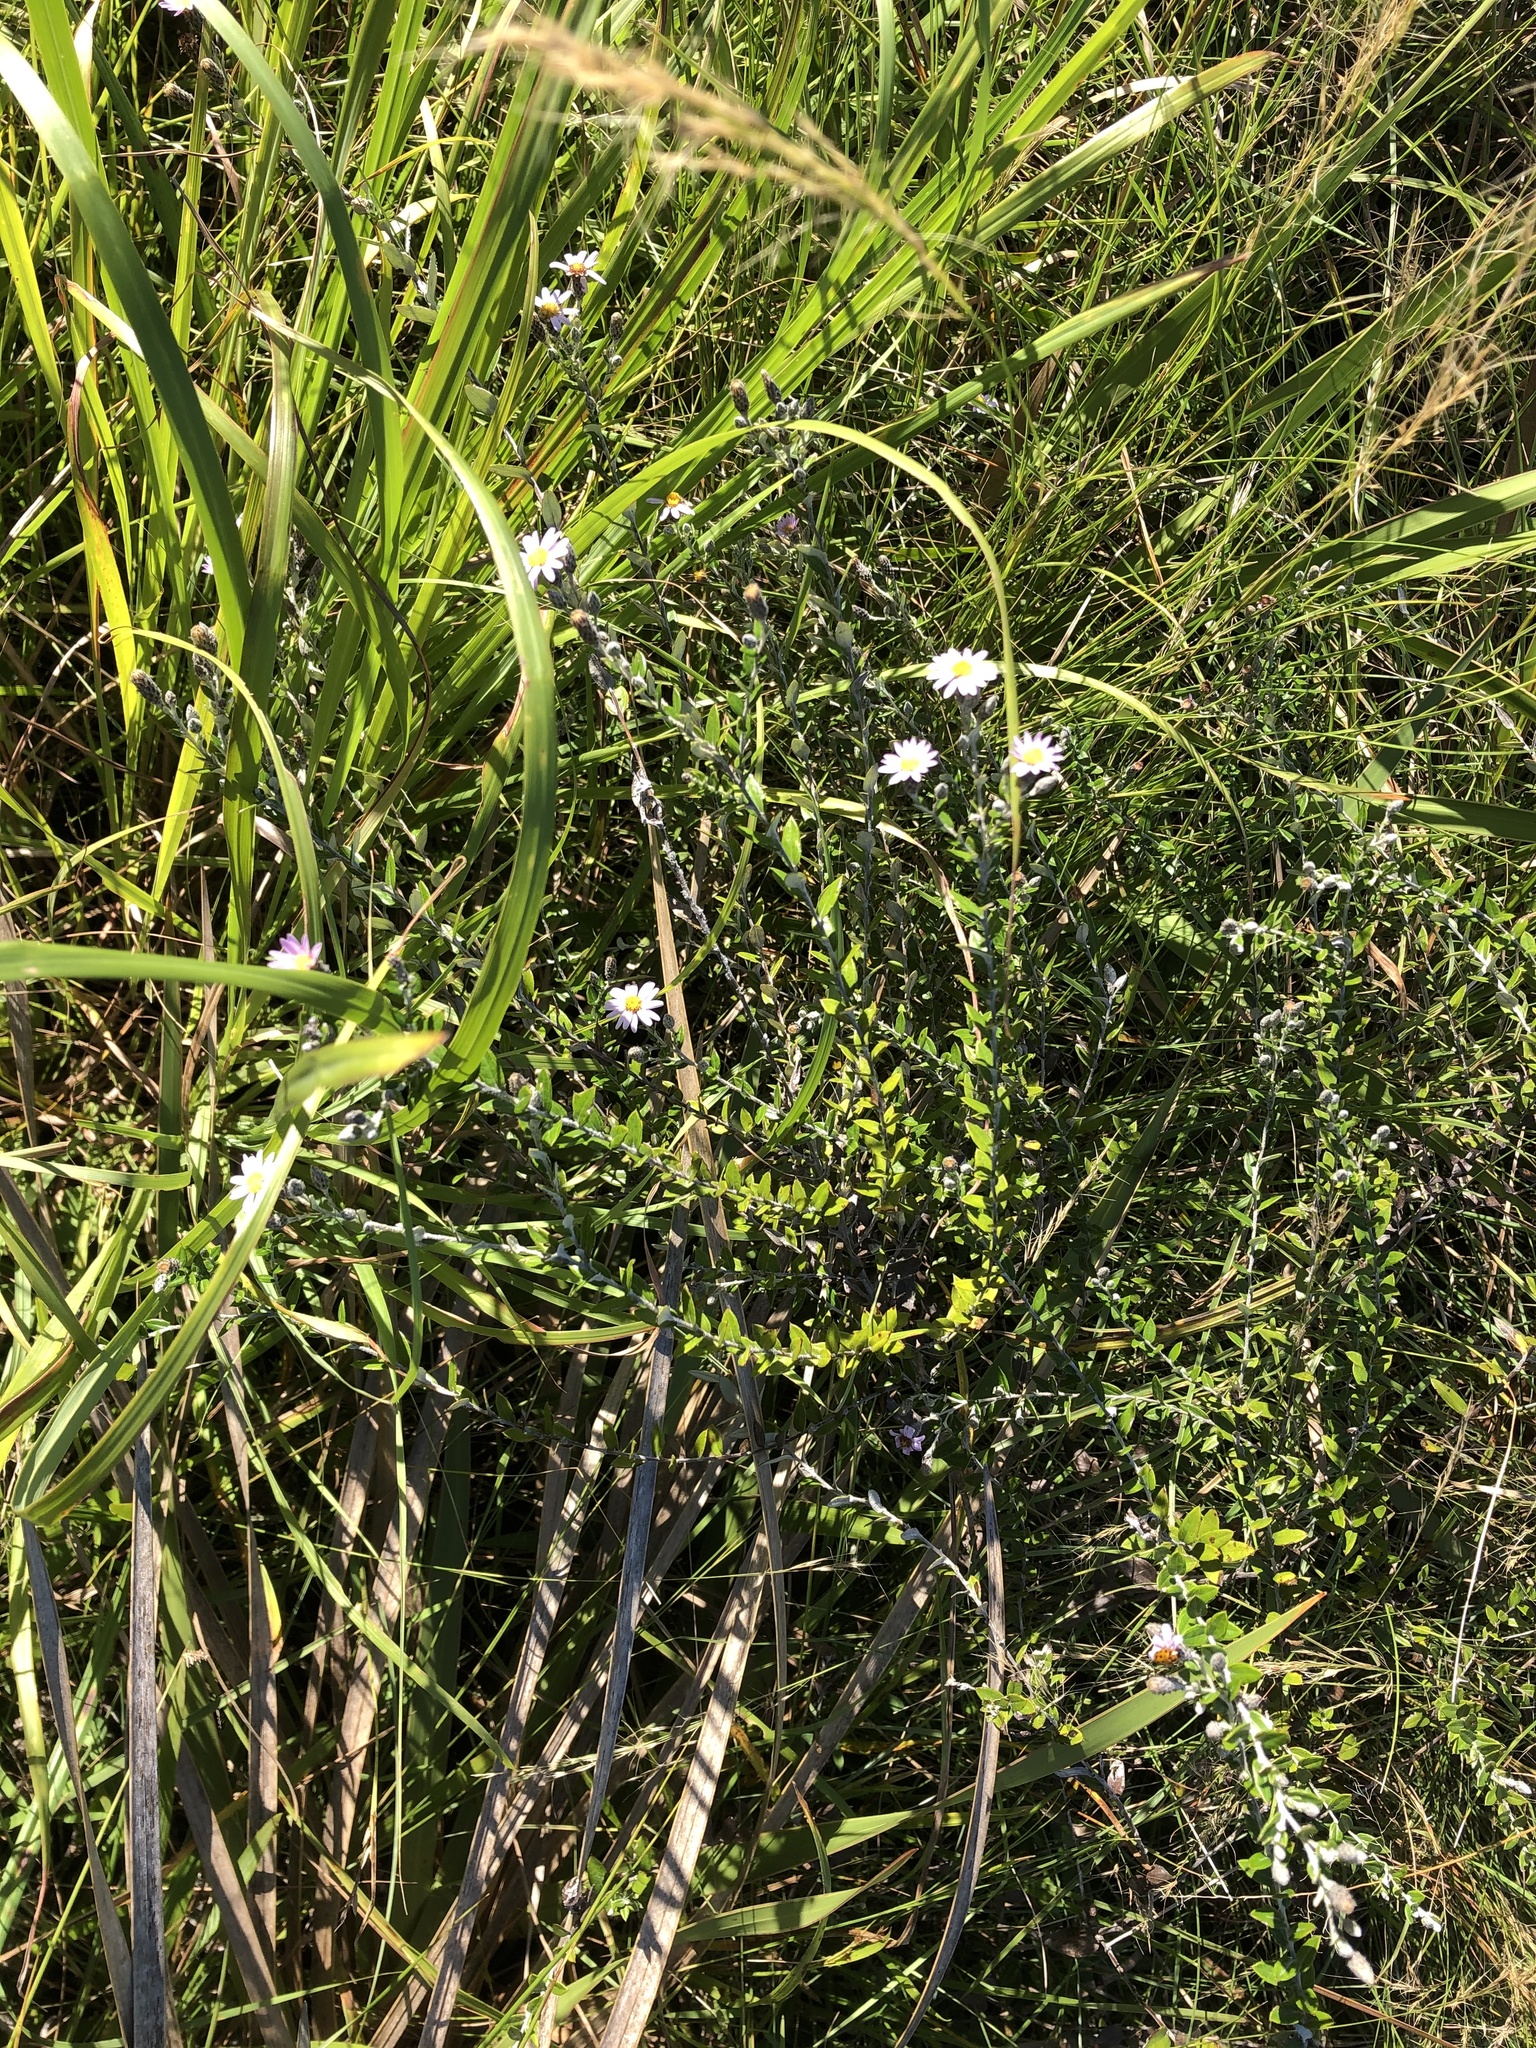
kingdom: Plantae
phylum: Tracheophyta
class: Magnoliopsida
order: Asterales
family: Asteraceae
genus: Athrixia
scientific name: Athrixia phylicoides
